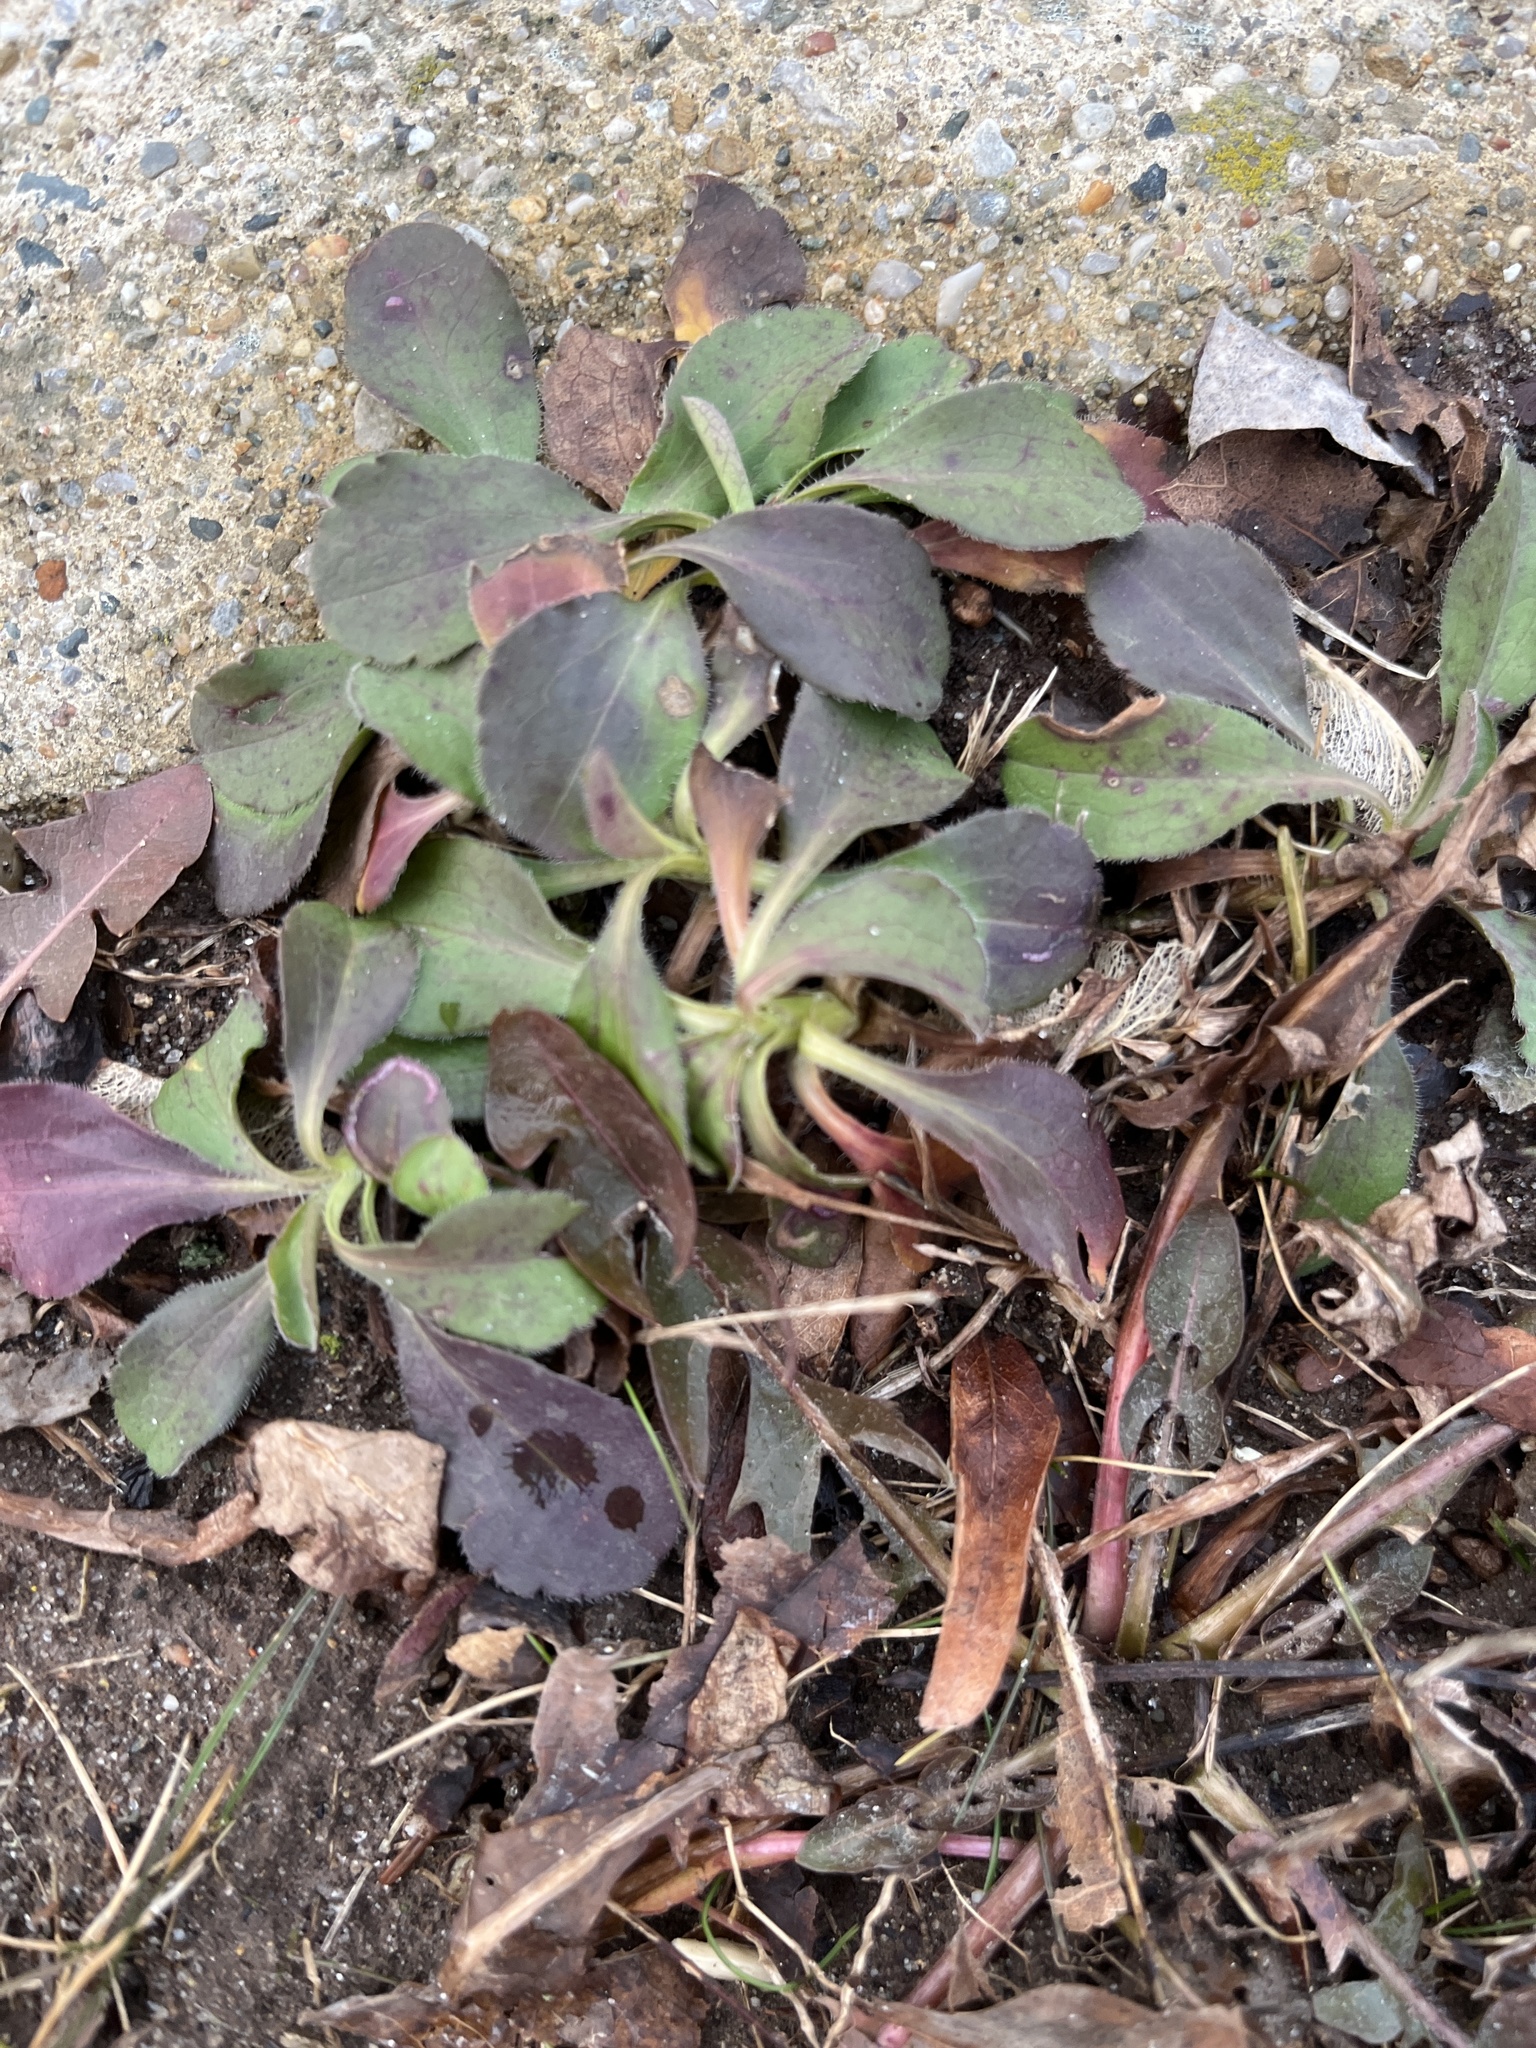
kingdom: Plantae
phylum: Tracheophyta
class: Magnoliopsida
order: Asterales
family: Asteraceae
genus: Symphyotrichum
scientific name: Symphyotrichum pilosum
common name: Awl aster
